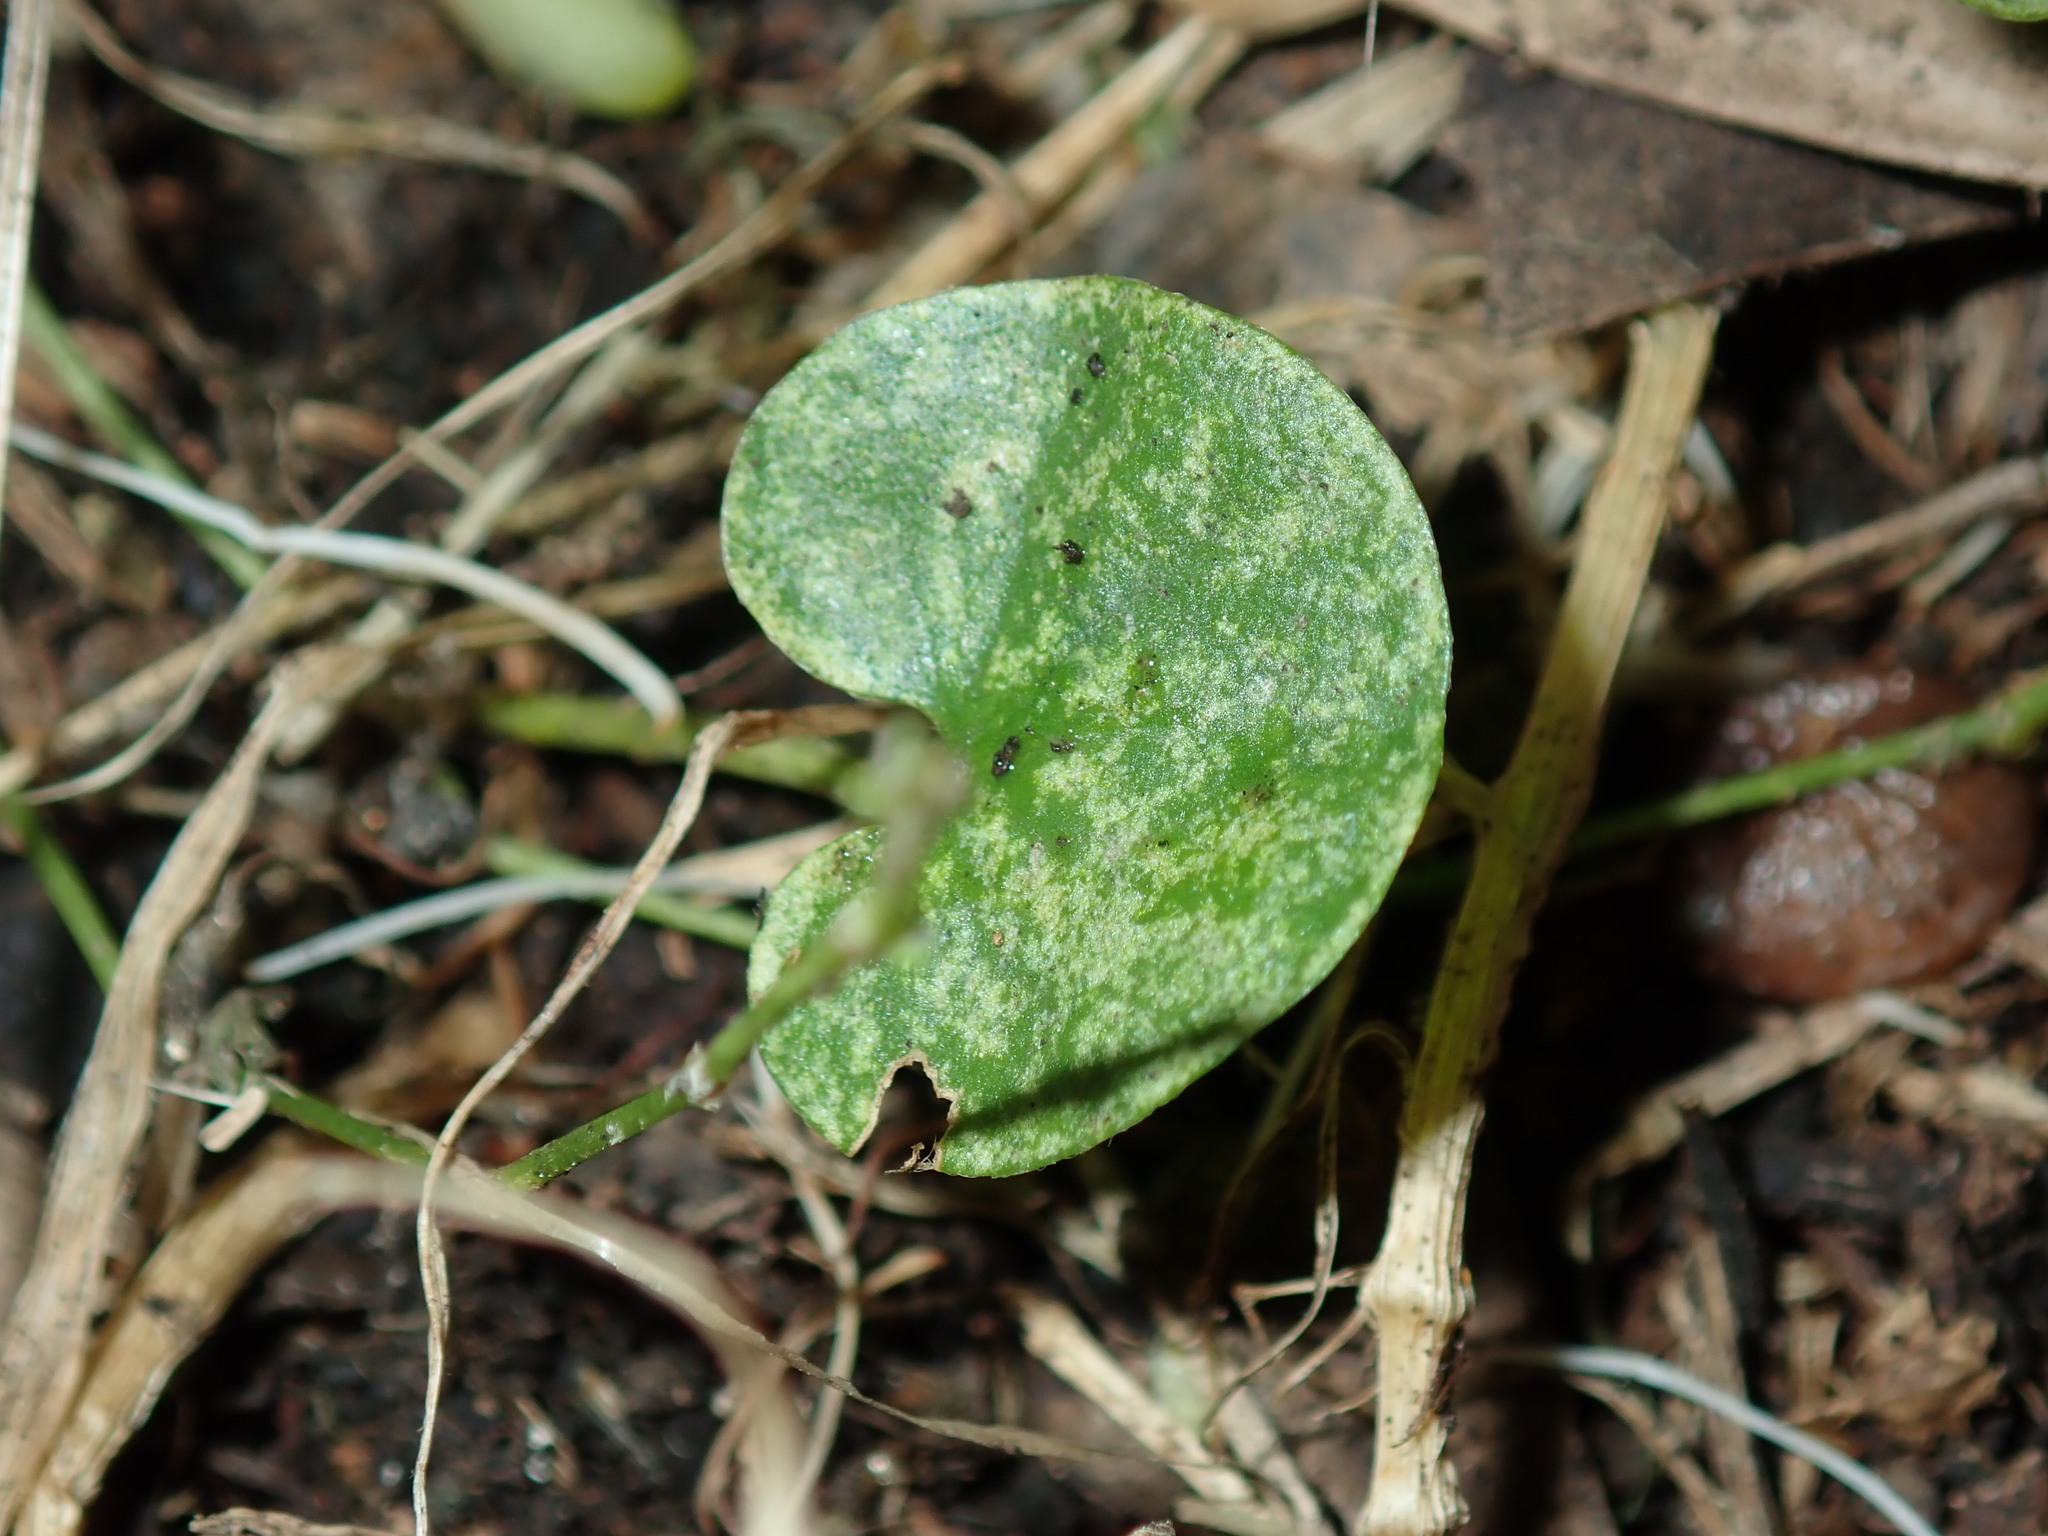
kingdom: Plantae
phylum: Tracheophyta
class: Magnoliopsida
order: Solanales
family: Convolvulaceae
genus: Dichondra
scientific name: Dichondra repens
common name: Kidneyweed
